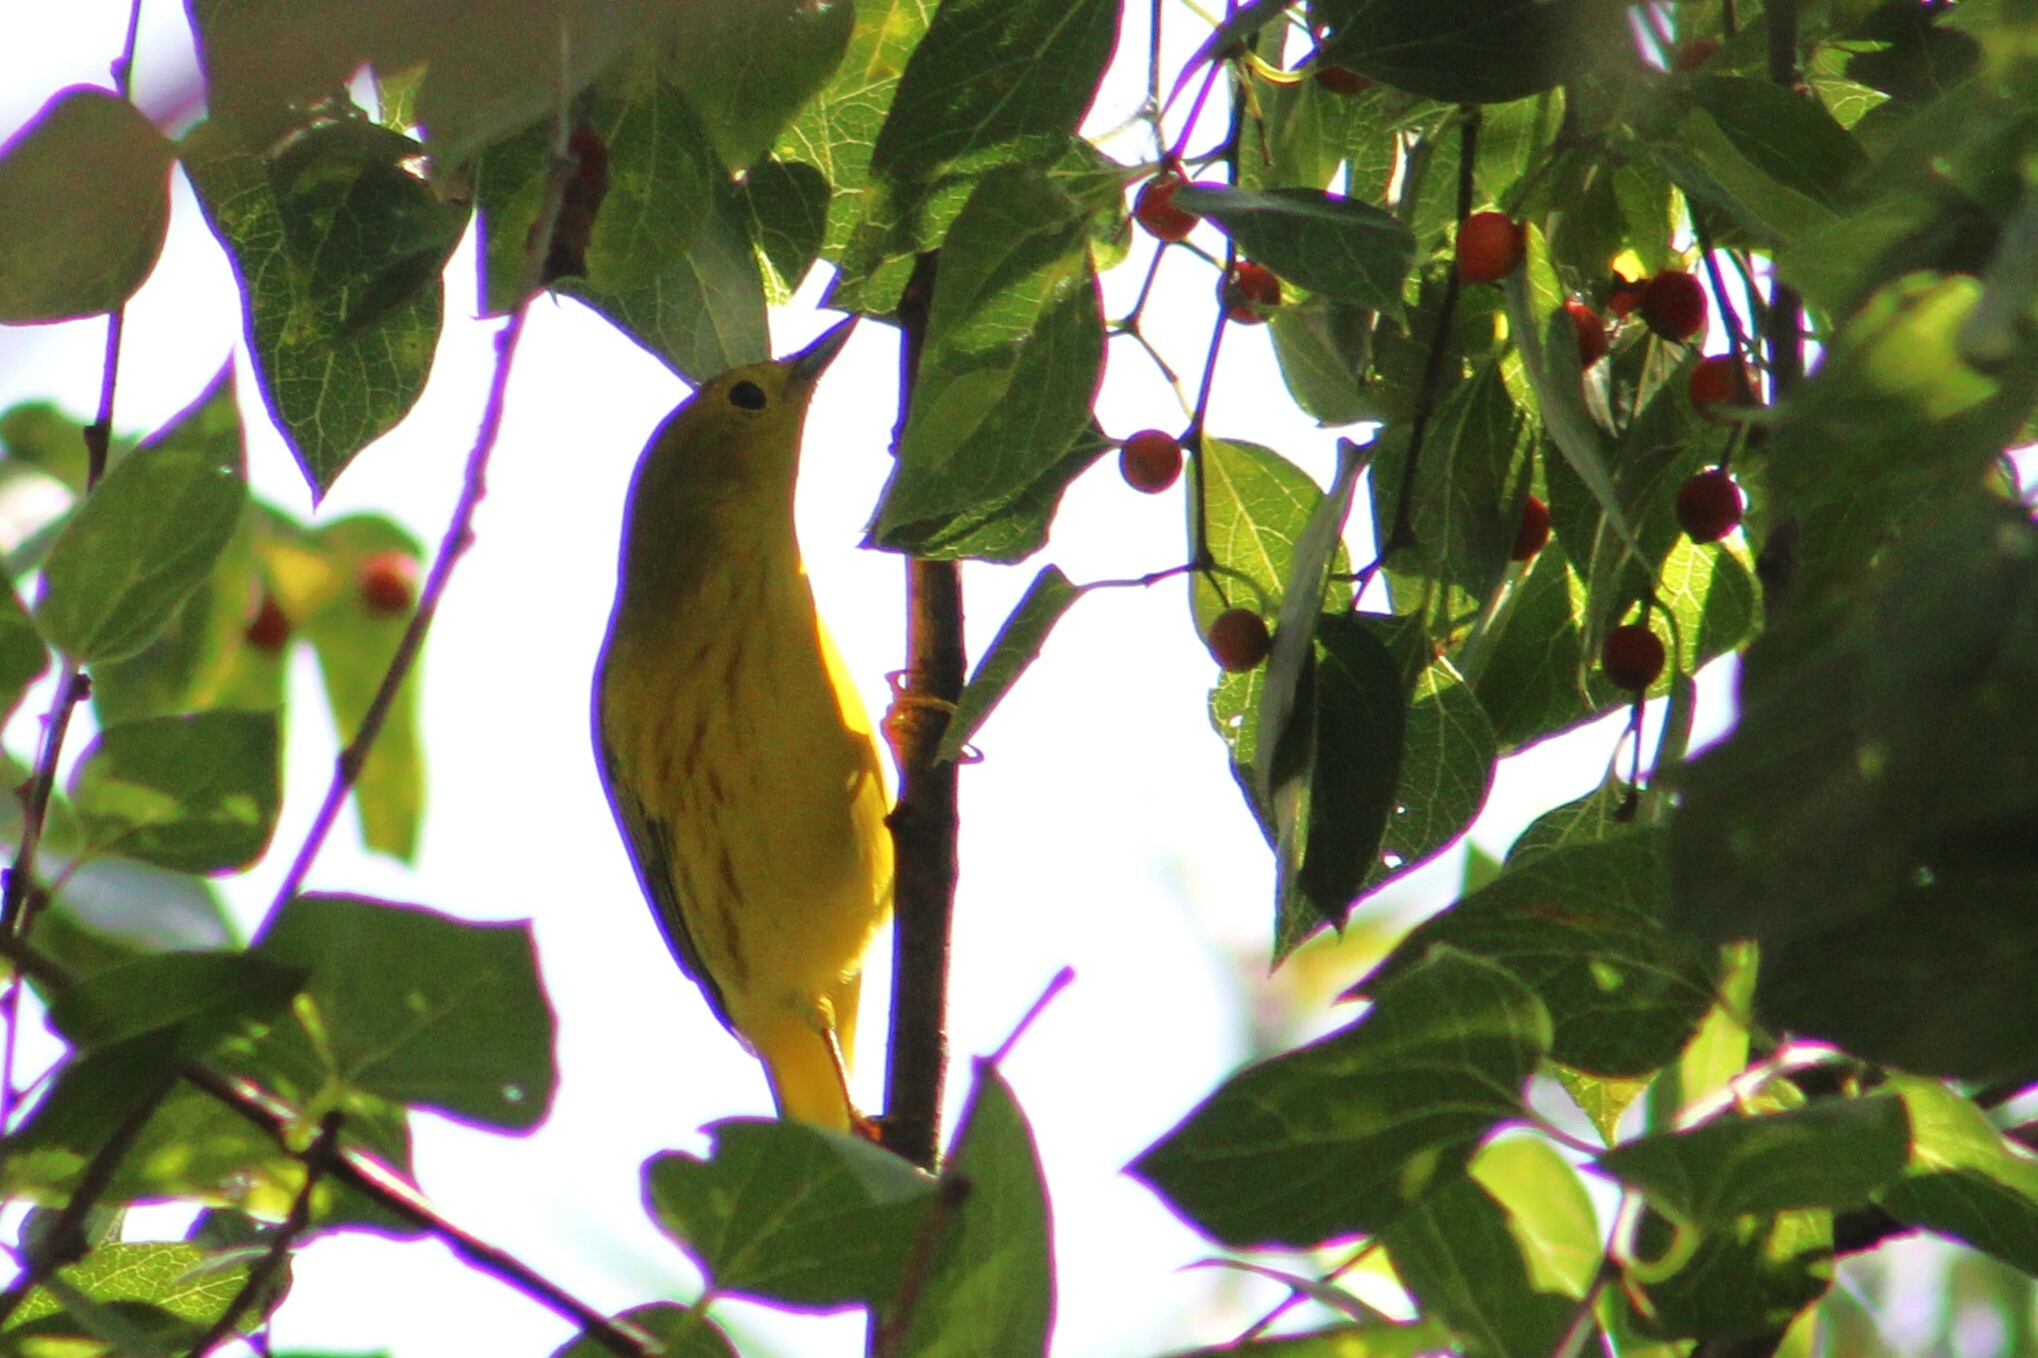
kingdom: Animalia
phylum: Chordata
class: Aves
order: Passeriformes
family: Parulidae
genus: Setophaga
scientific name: Setophaga petechia
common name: Yellow warbler
